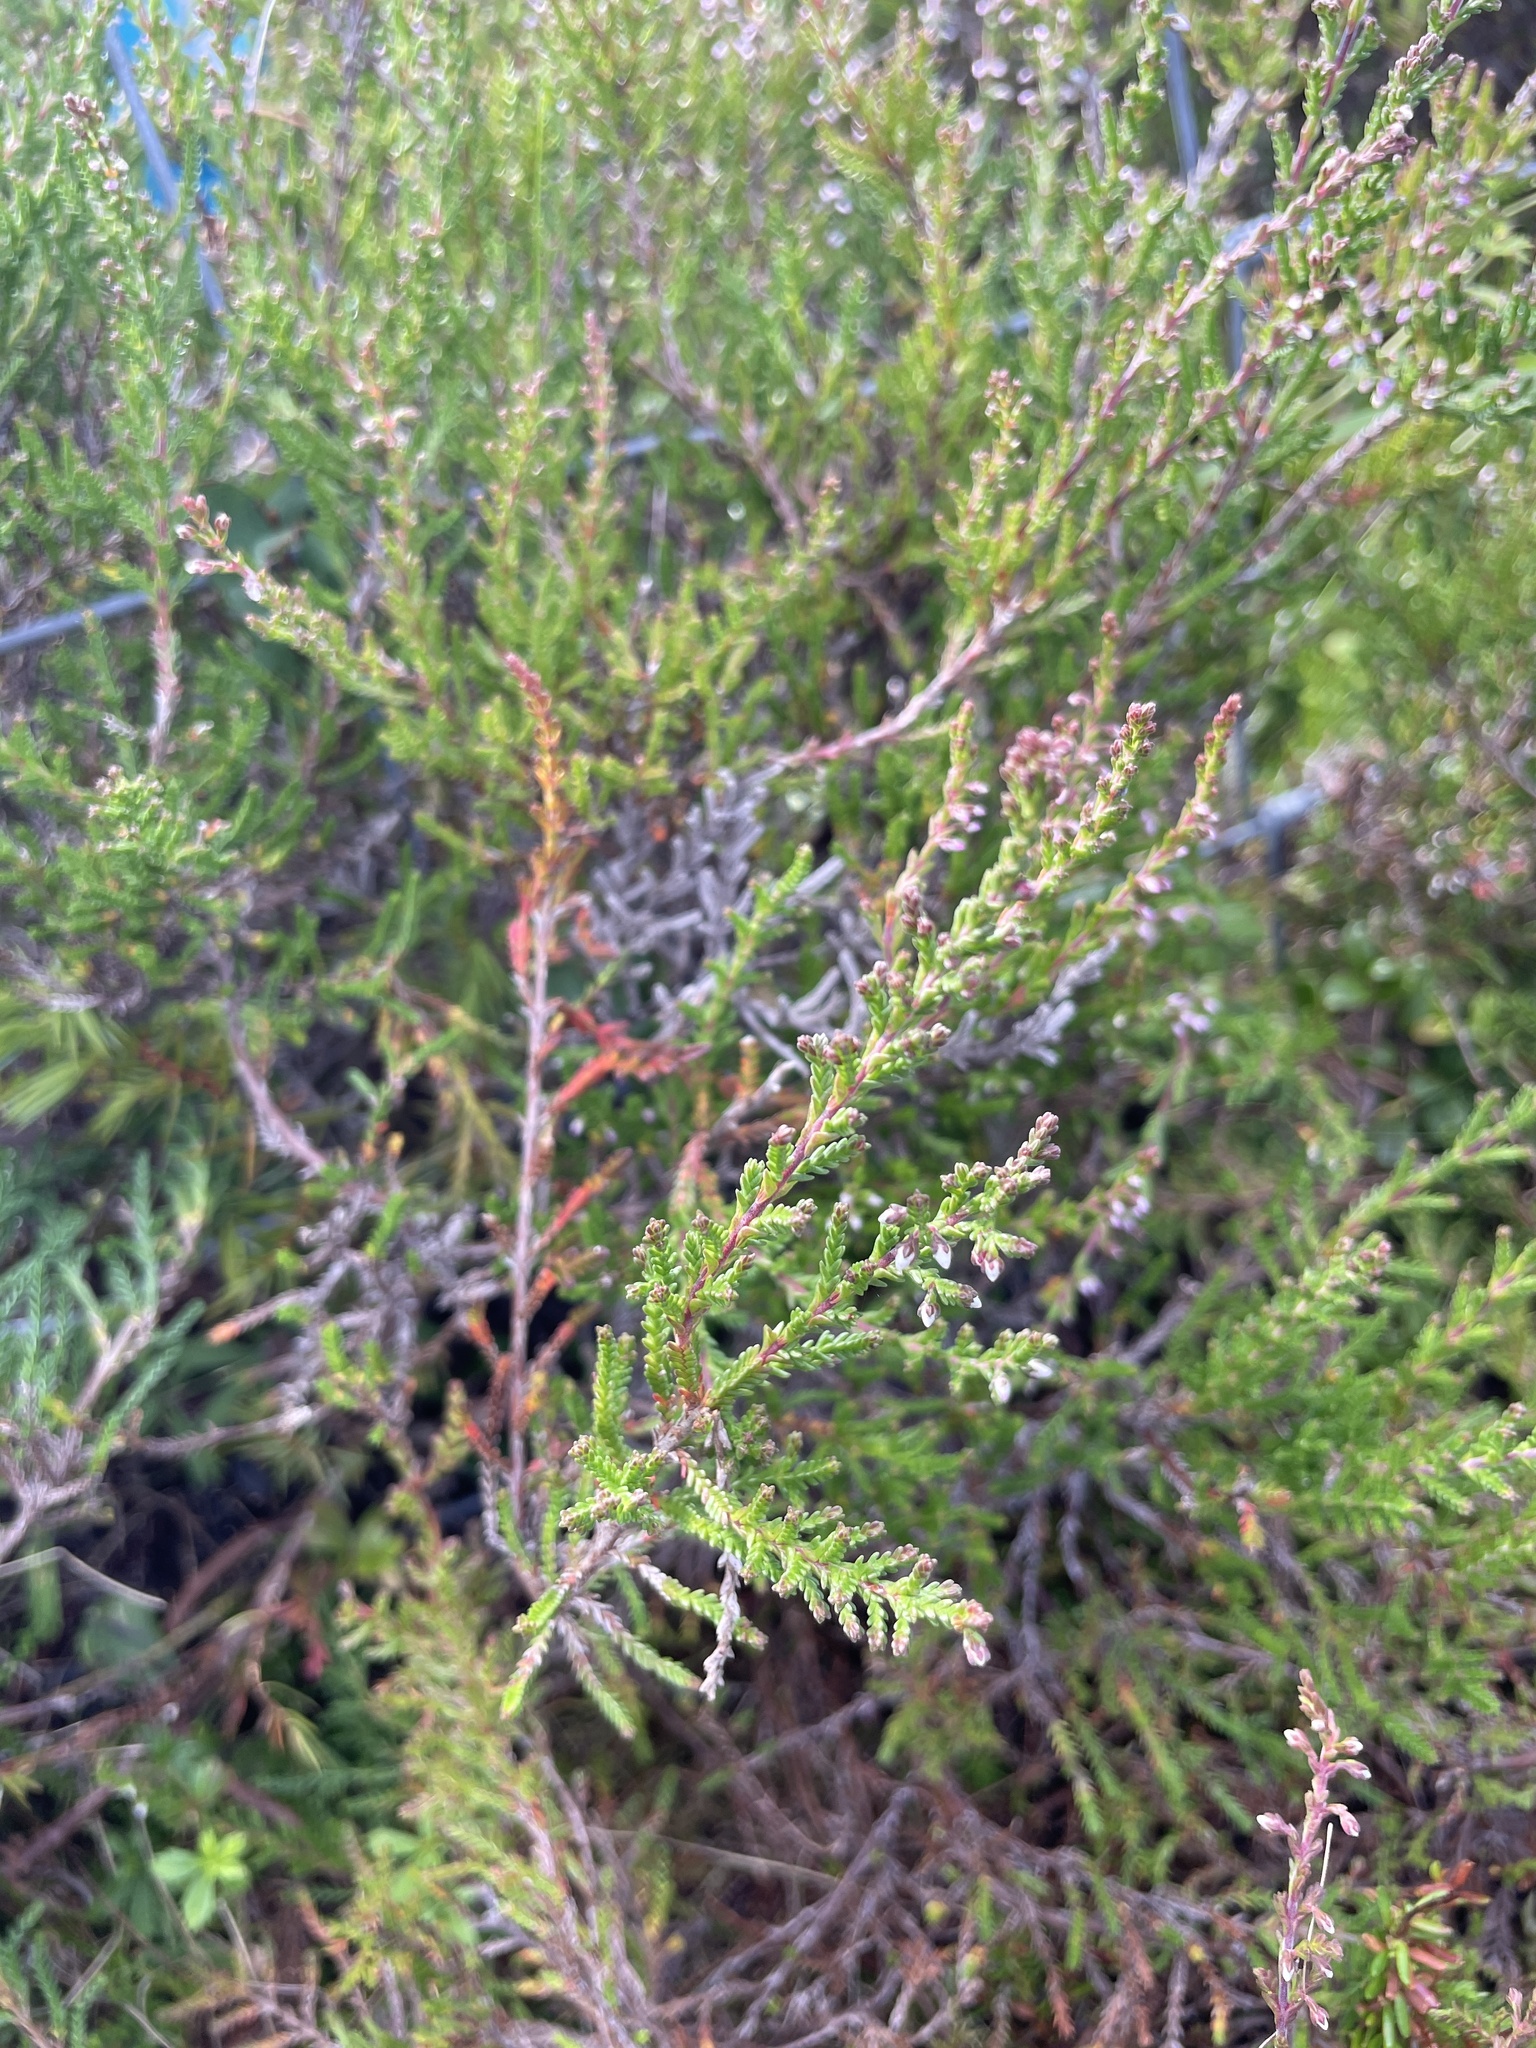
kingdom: Plantae
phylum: Tracheophyta
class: Magnoliopsida
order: Ericales
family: Ericaceae
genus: Calluna
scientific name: Calluna vulgaris
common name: Heather
